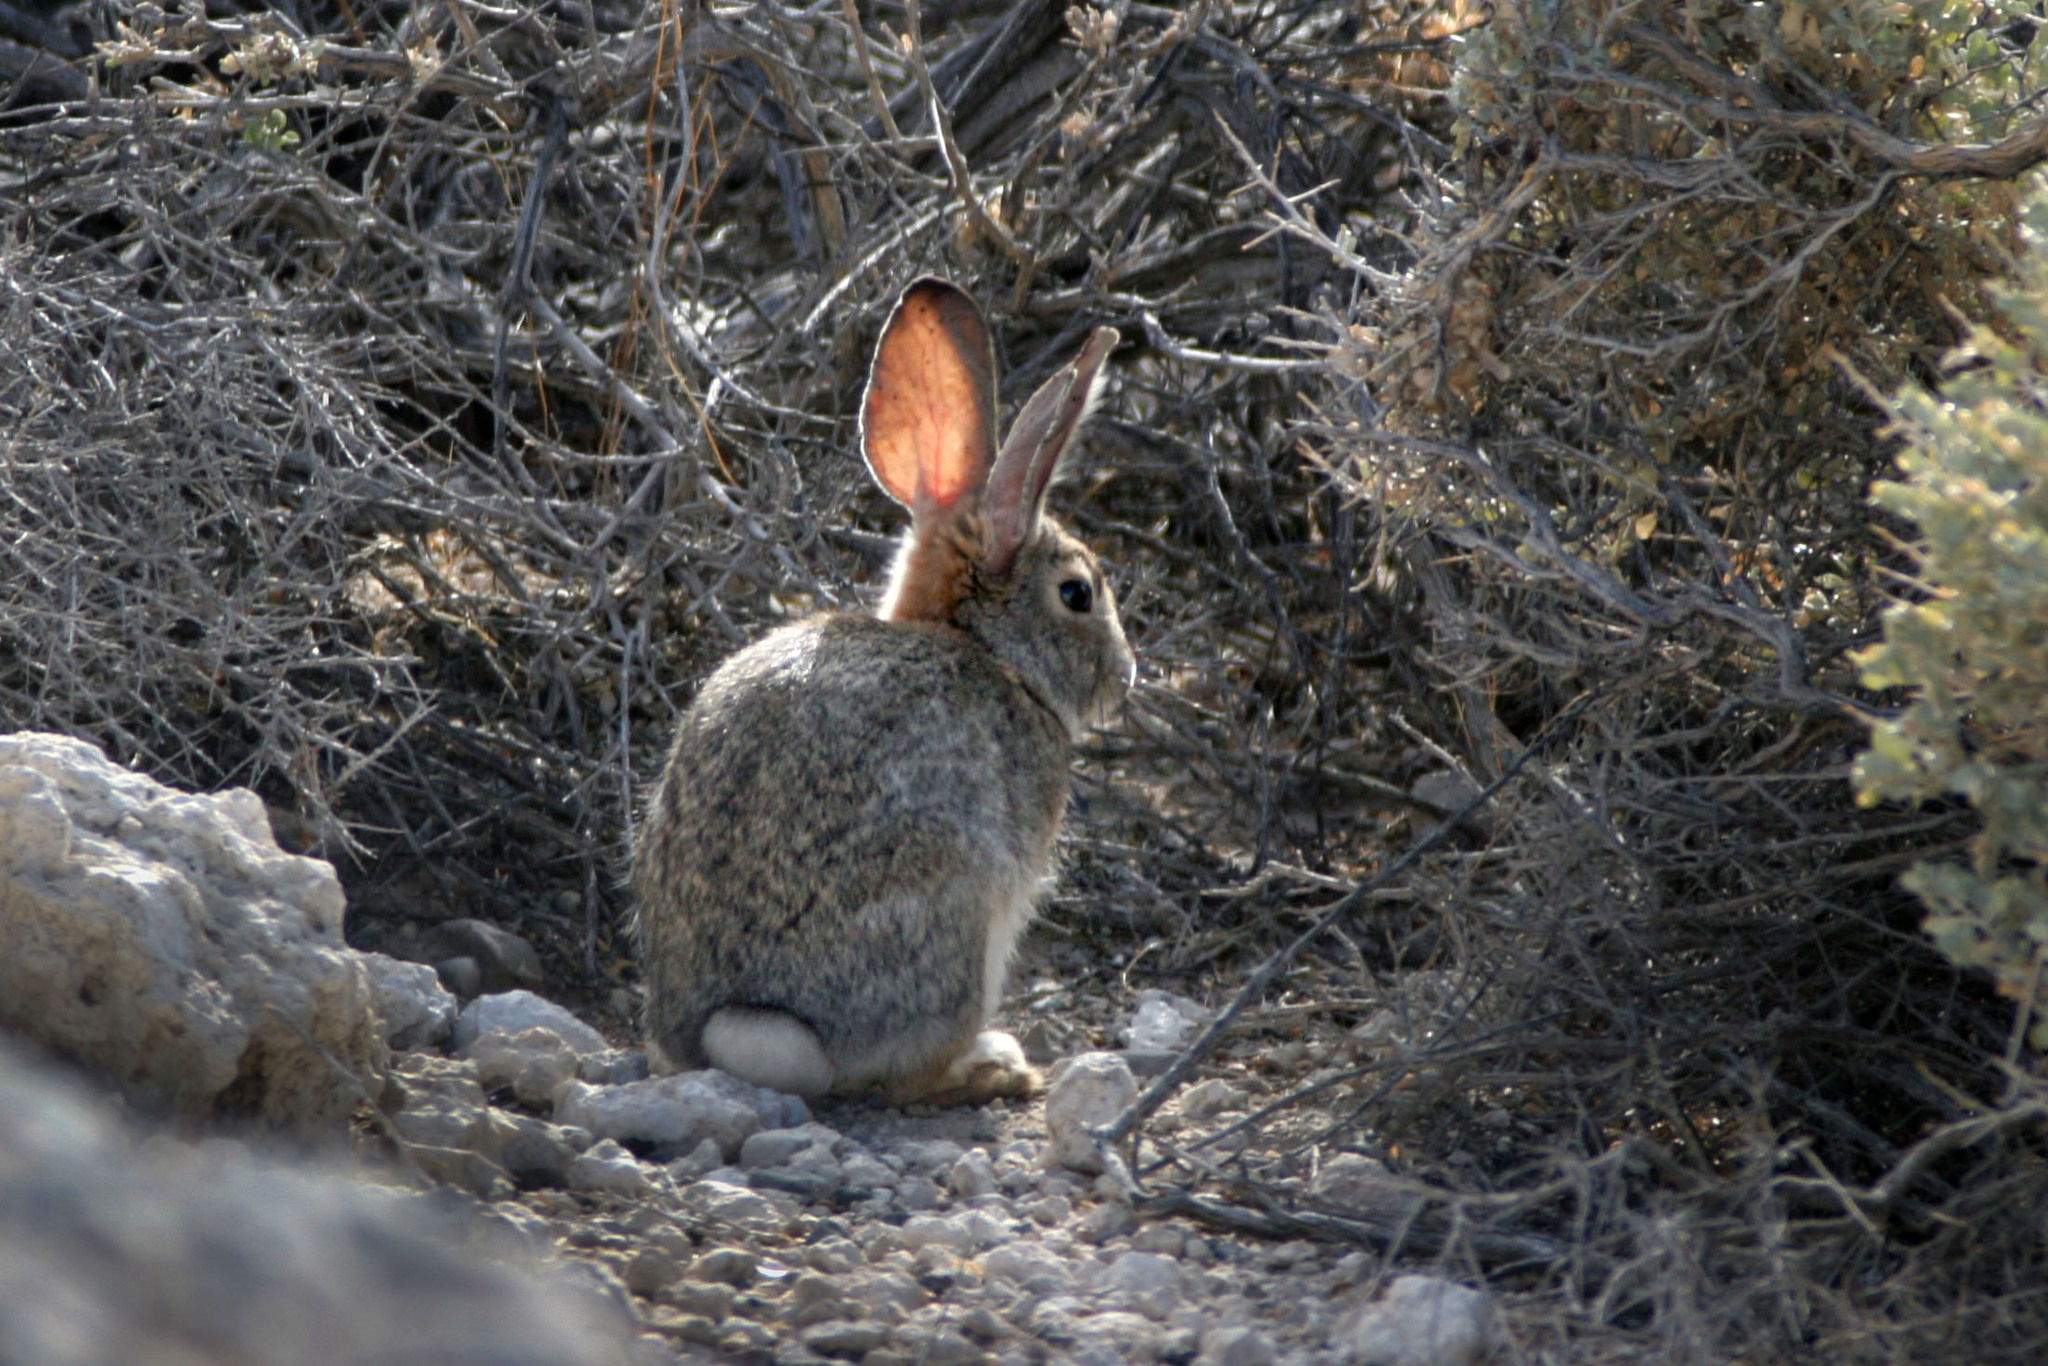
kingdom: Animalia
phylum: Chordata
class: Mammalia
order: Lagomorpha
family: Leporidae
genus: Sylvilagus
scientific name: Sylvilagus audubonii
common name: Desert cottontail
